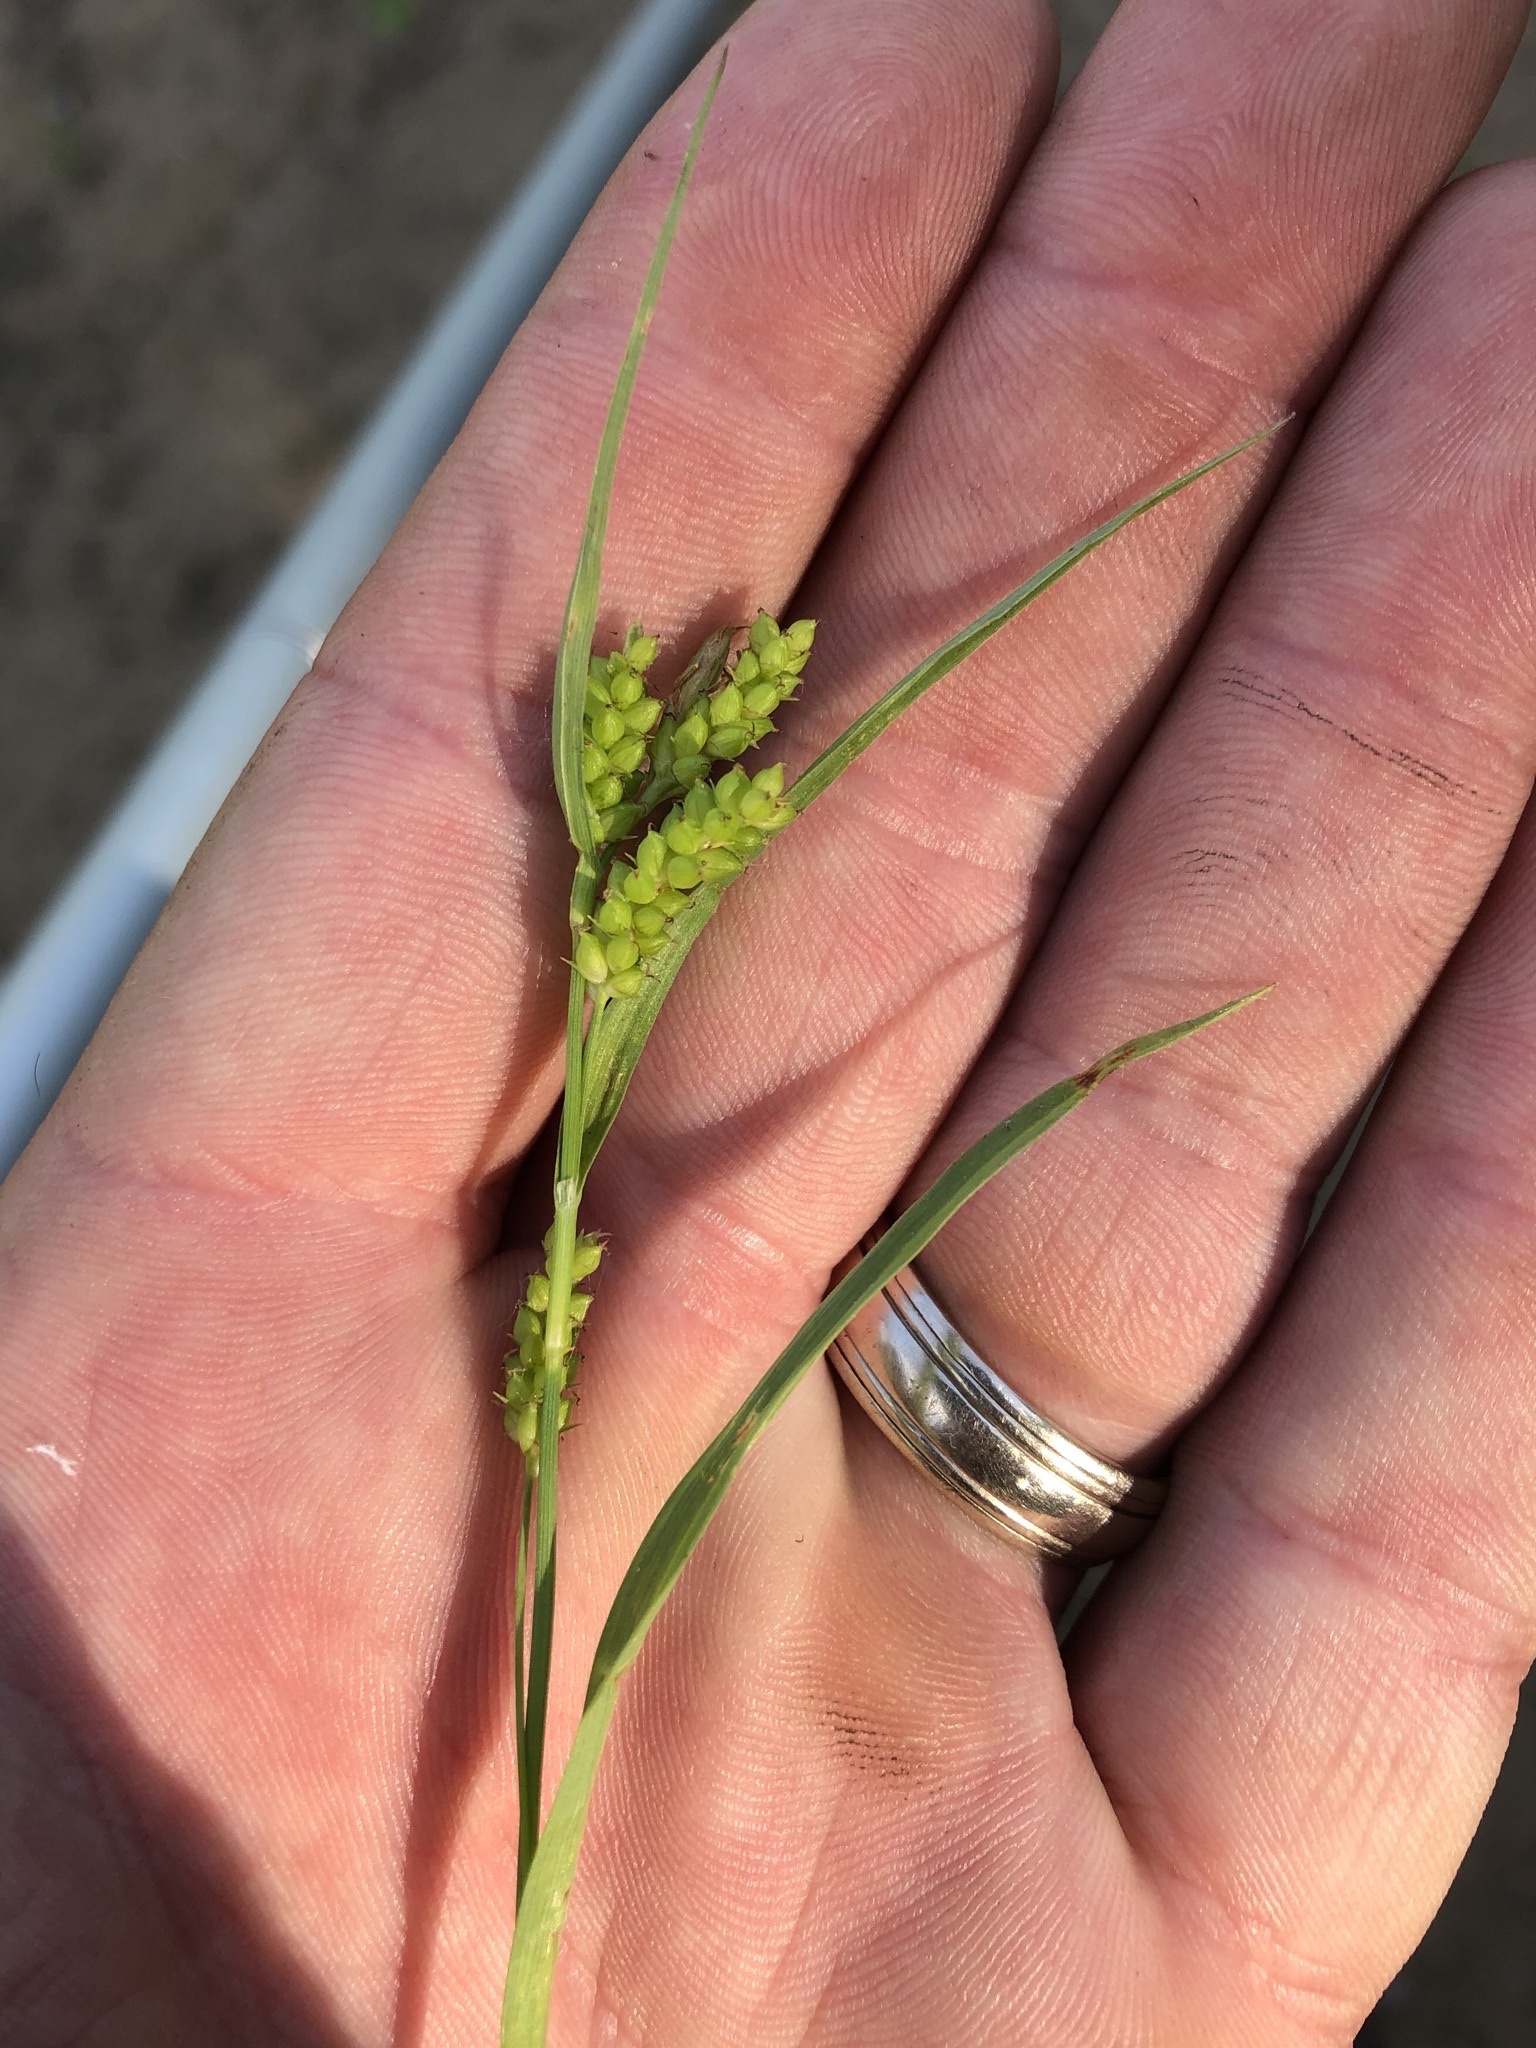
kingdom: Plantae
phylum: Tracheophyta
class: Liliopsida
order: Poales
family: Cyperaceae
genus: Carex
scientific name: Carex granularis
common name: Granular sedge
